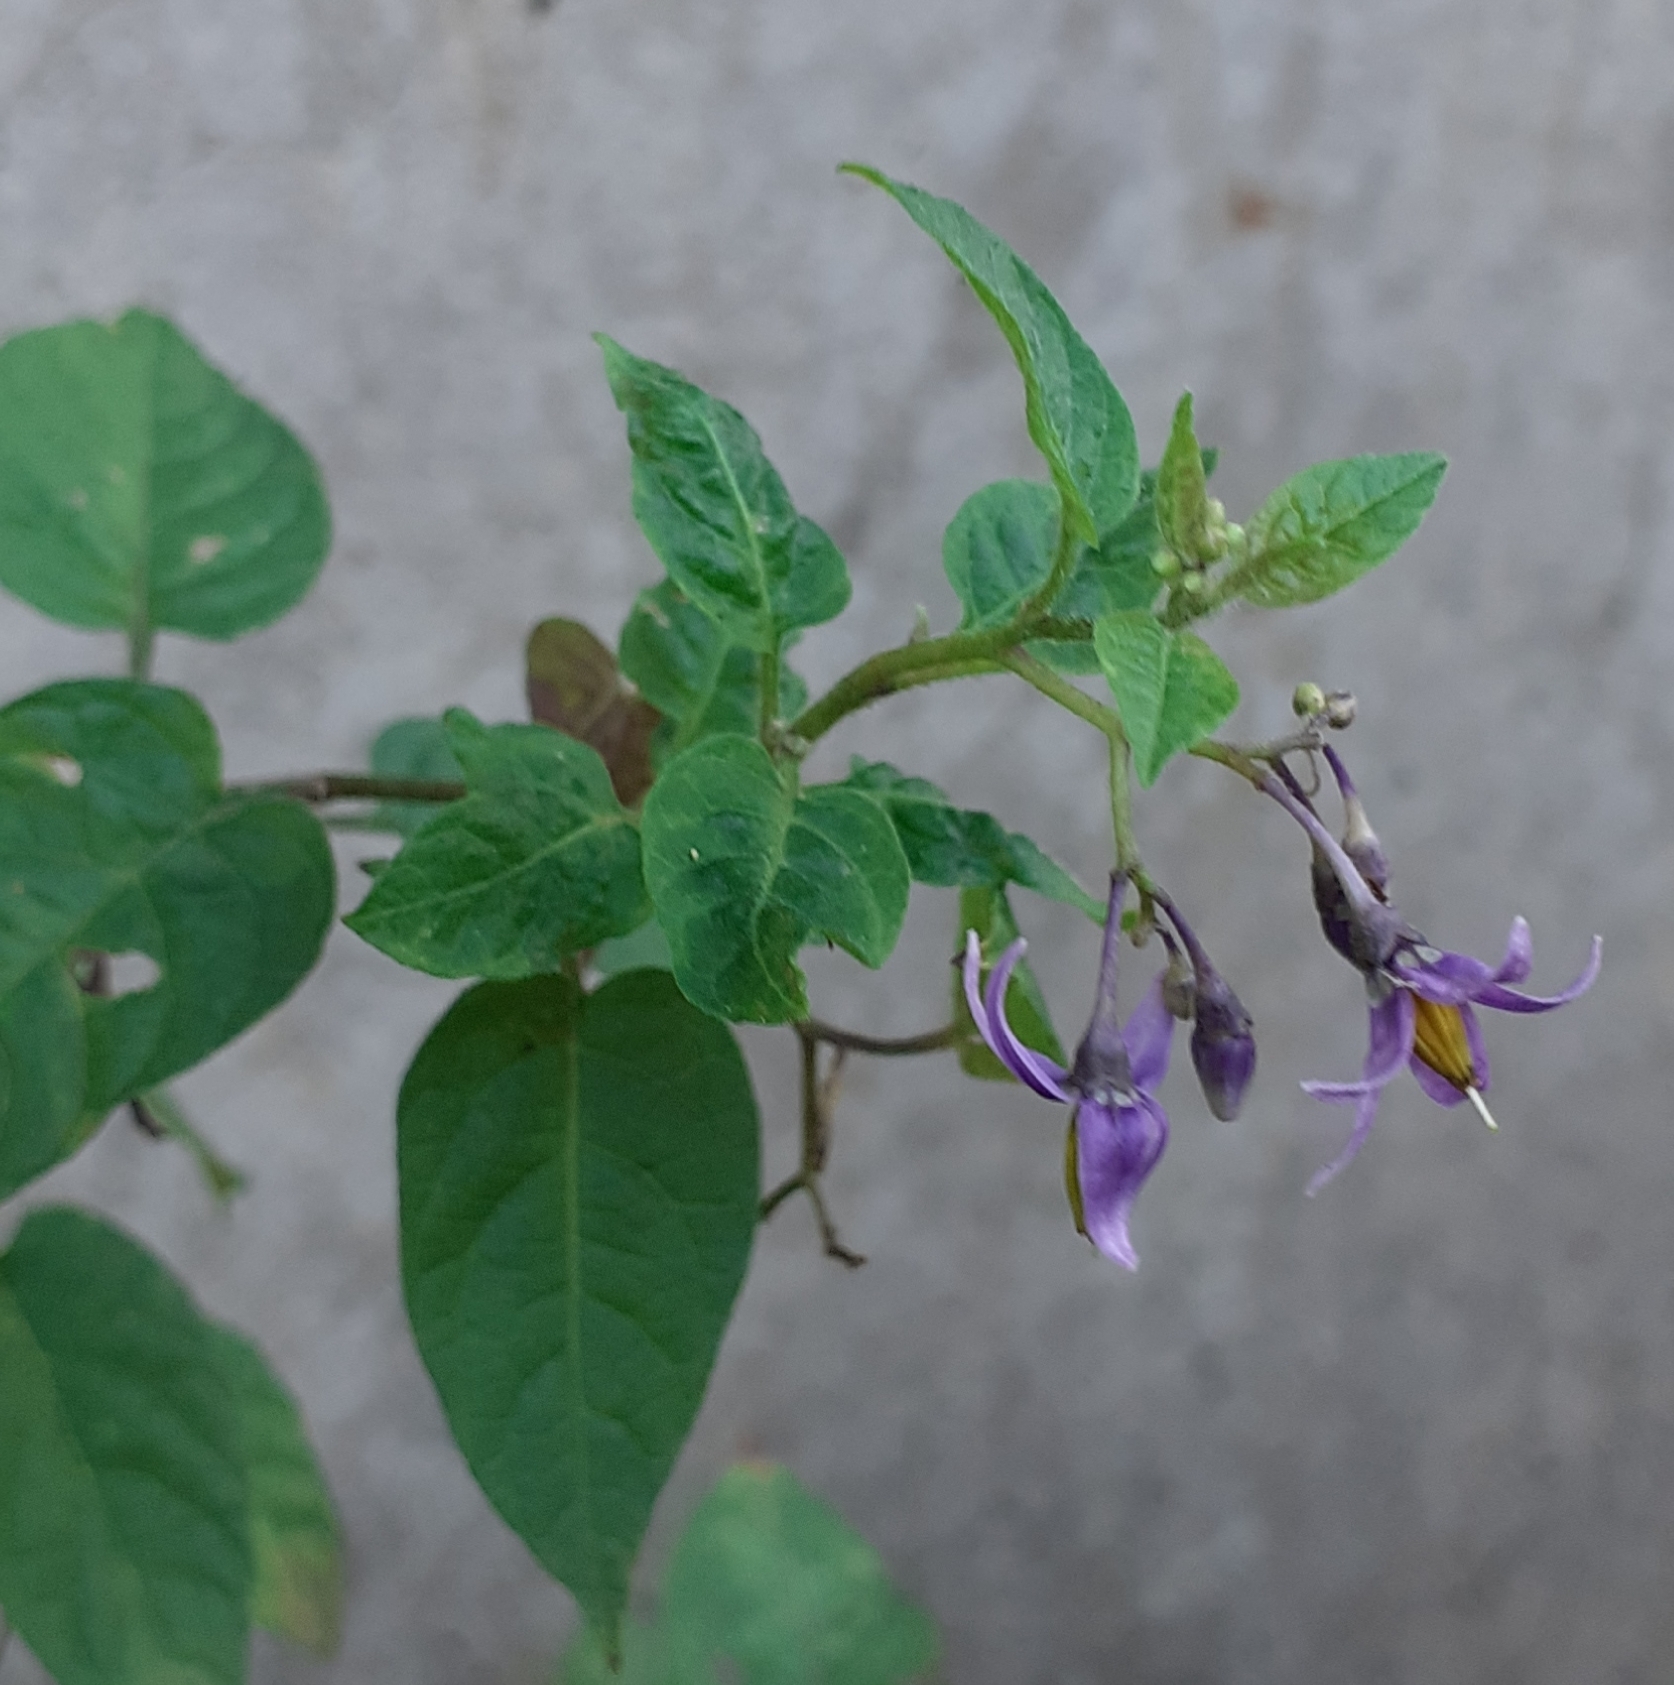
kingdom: Plantae
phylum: Tracheophyta
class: Magnoliopsida
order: Solanales
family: Solanaceae
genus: Solanum
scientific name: Solanum dulcamara
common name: Climbing nightshade
